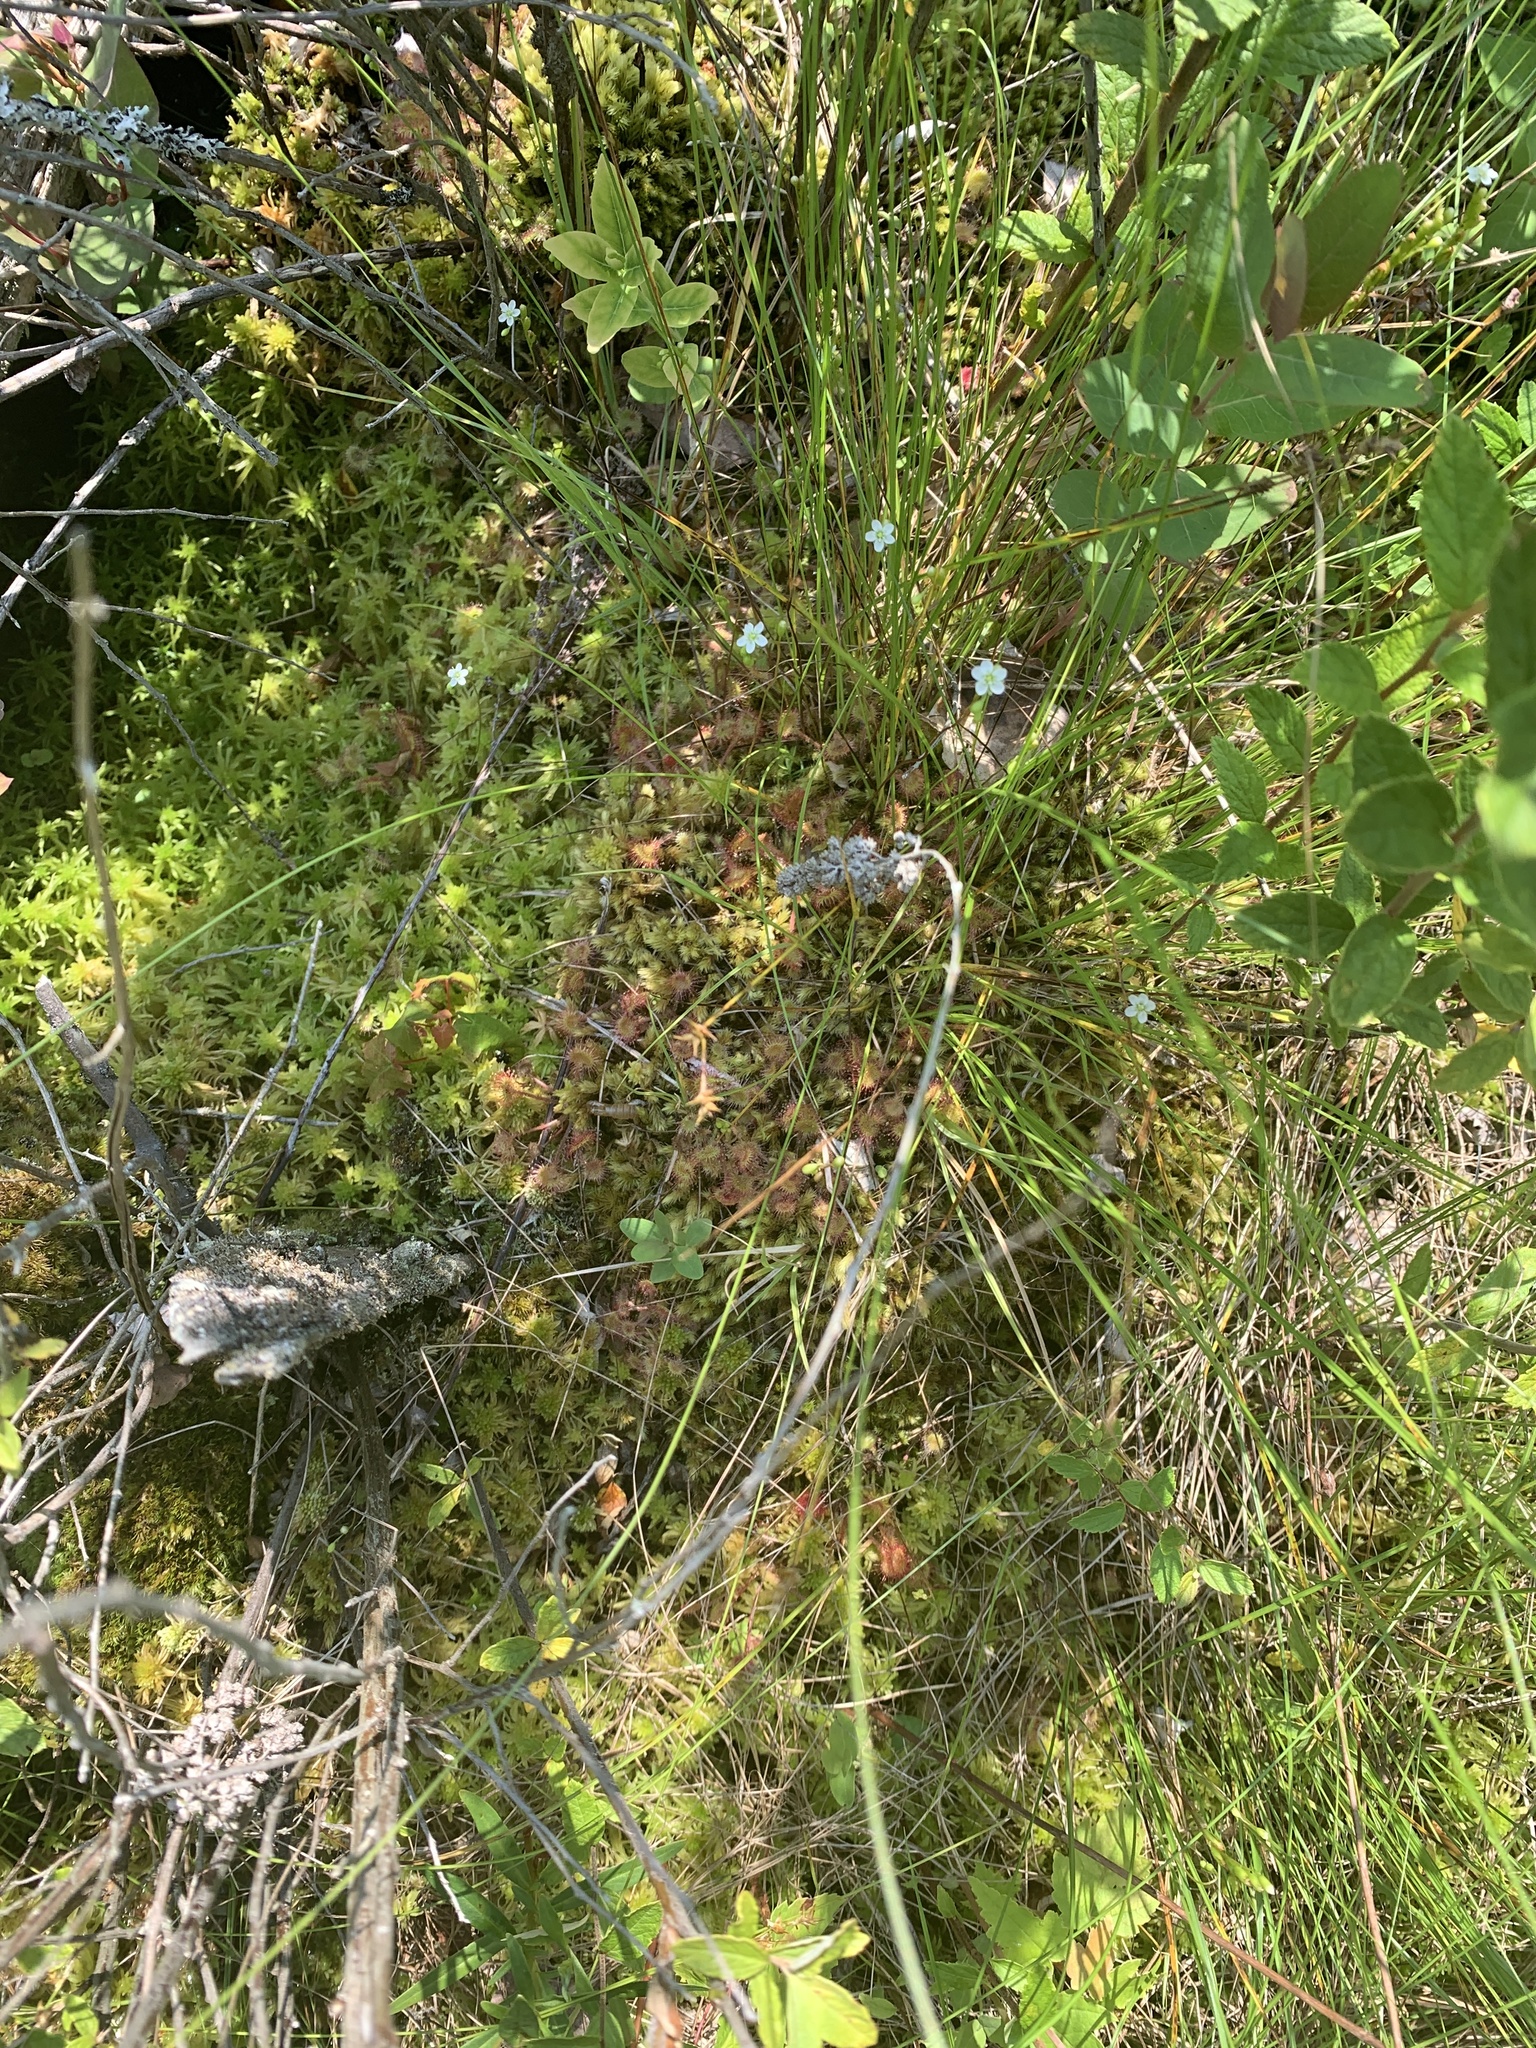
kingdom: Plantae
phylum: Tracheophyta
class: Magnoliopsida
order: Caryophyllales
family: Droseraceae
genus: Drosera
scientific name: Drosera rotundifolia
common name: Round-leaved sundew
